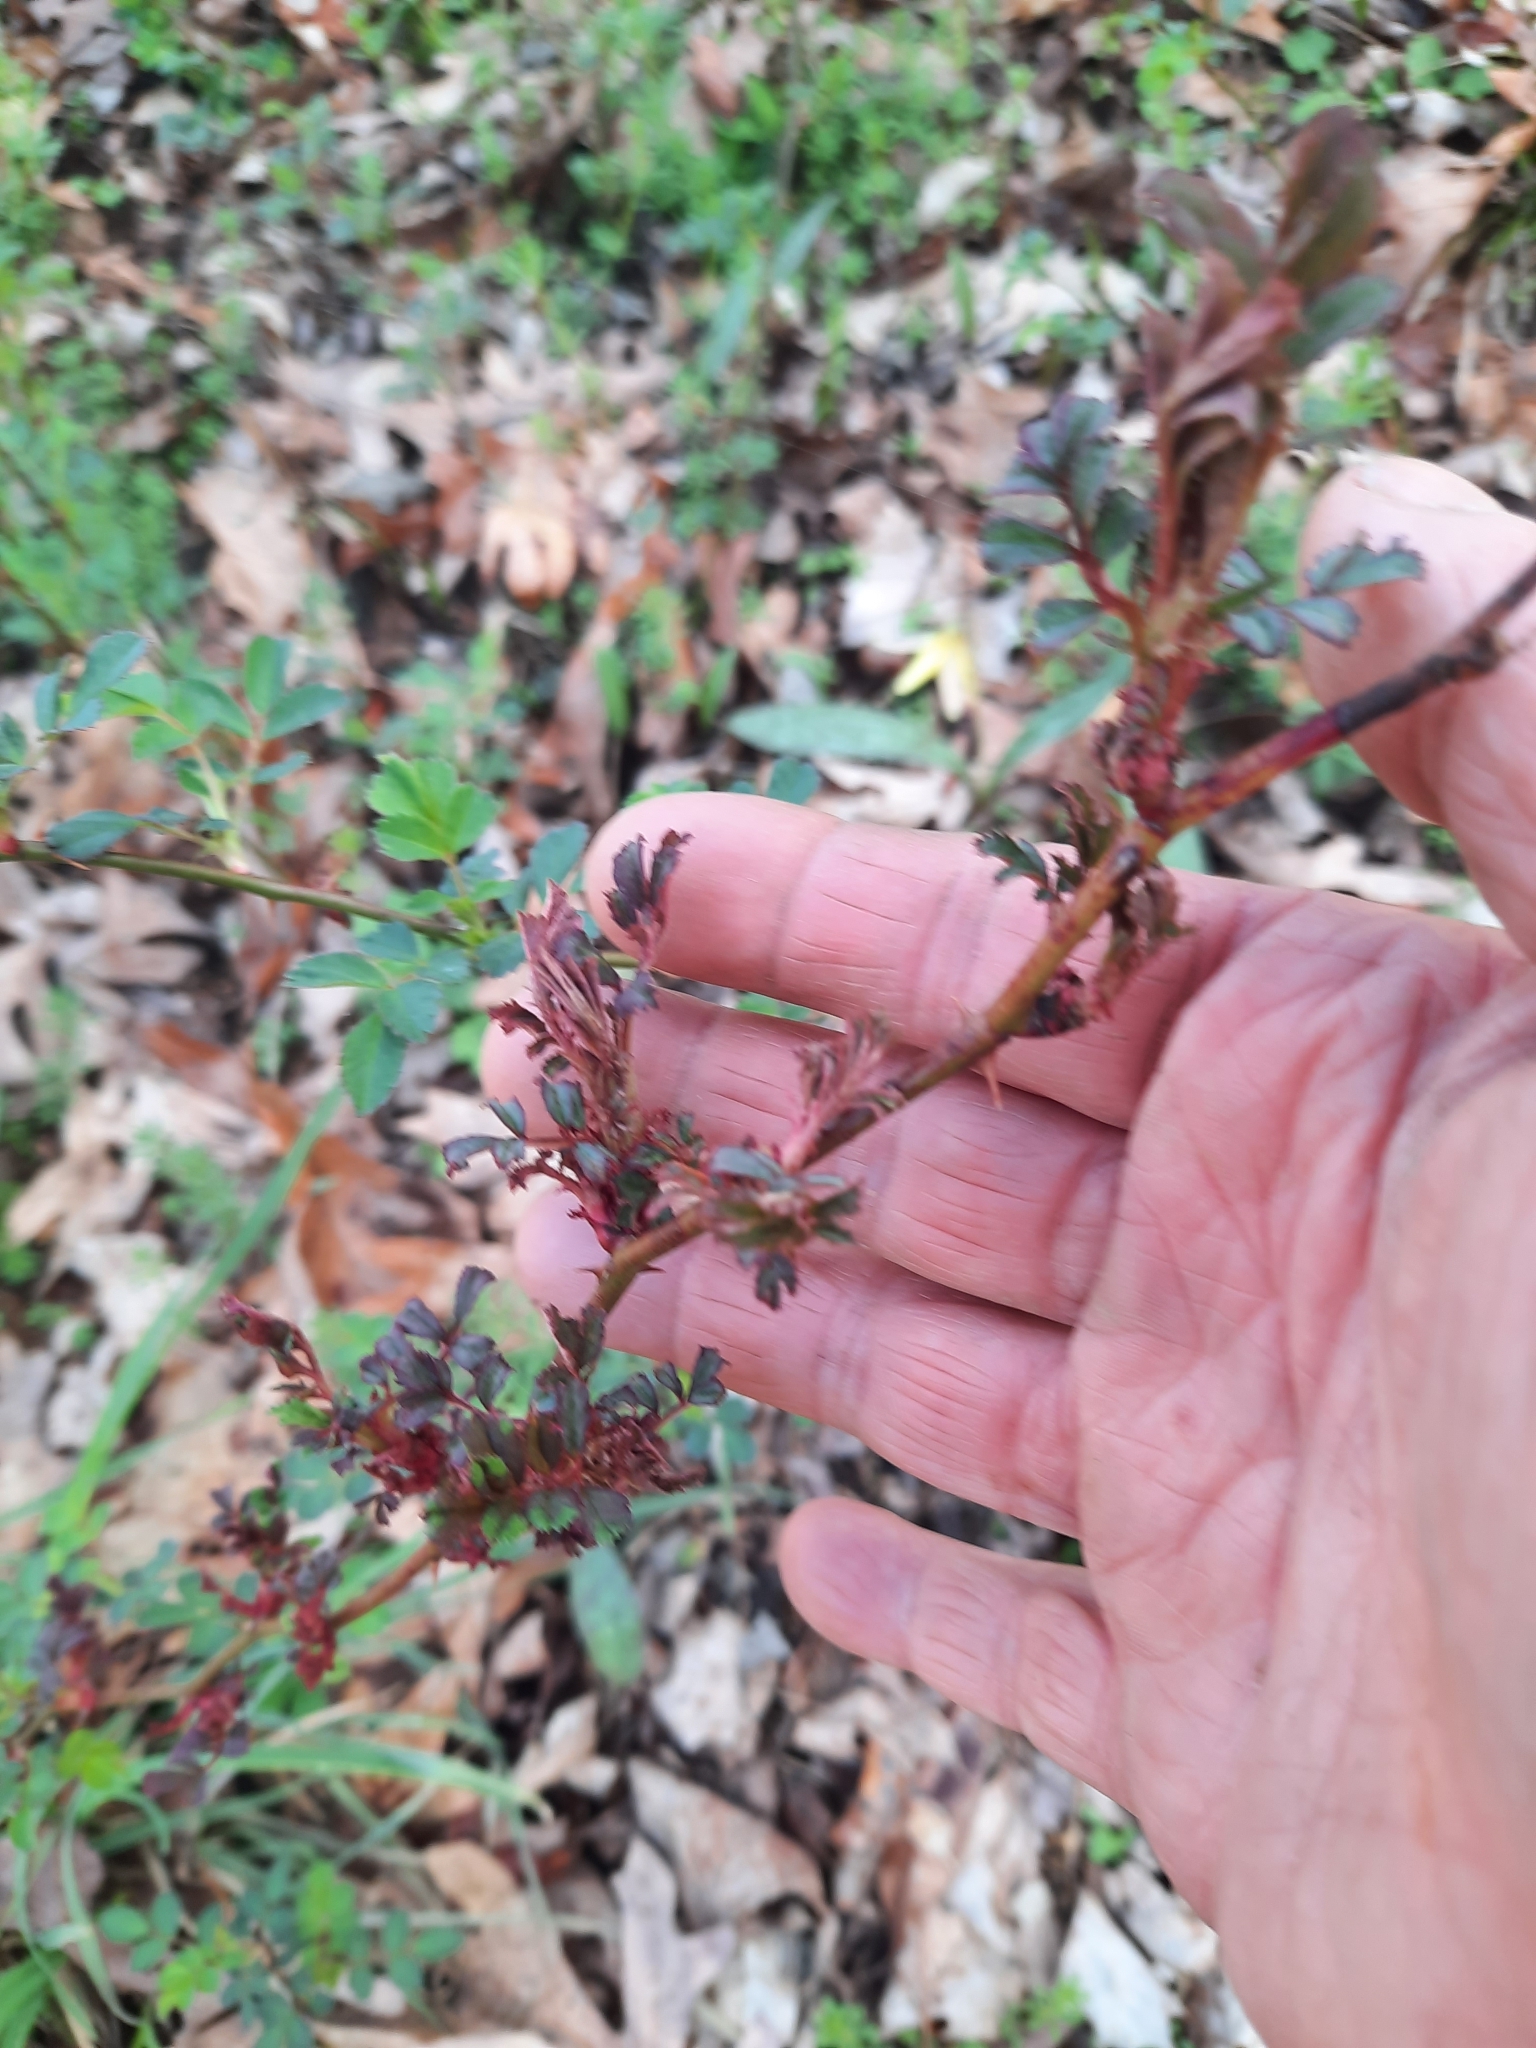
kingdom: Viruses
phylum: Negarnaviricota
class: Ellioviricetes
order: Bunyavirales
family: Fimoviridae
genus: Emaravirus
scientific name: Emaravirus rosae
